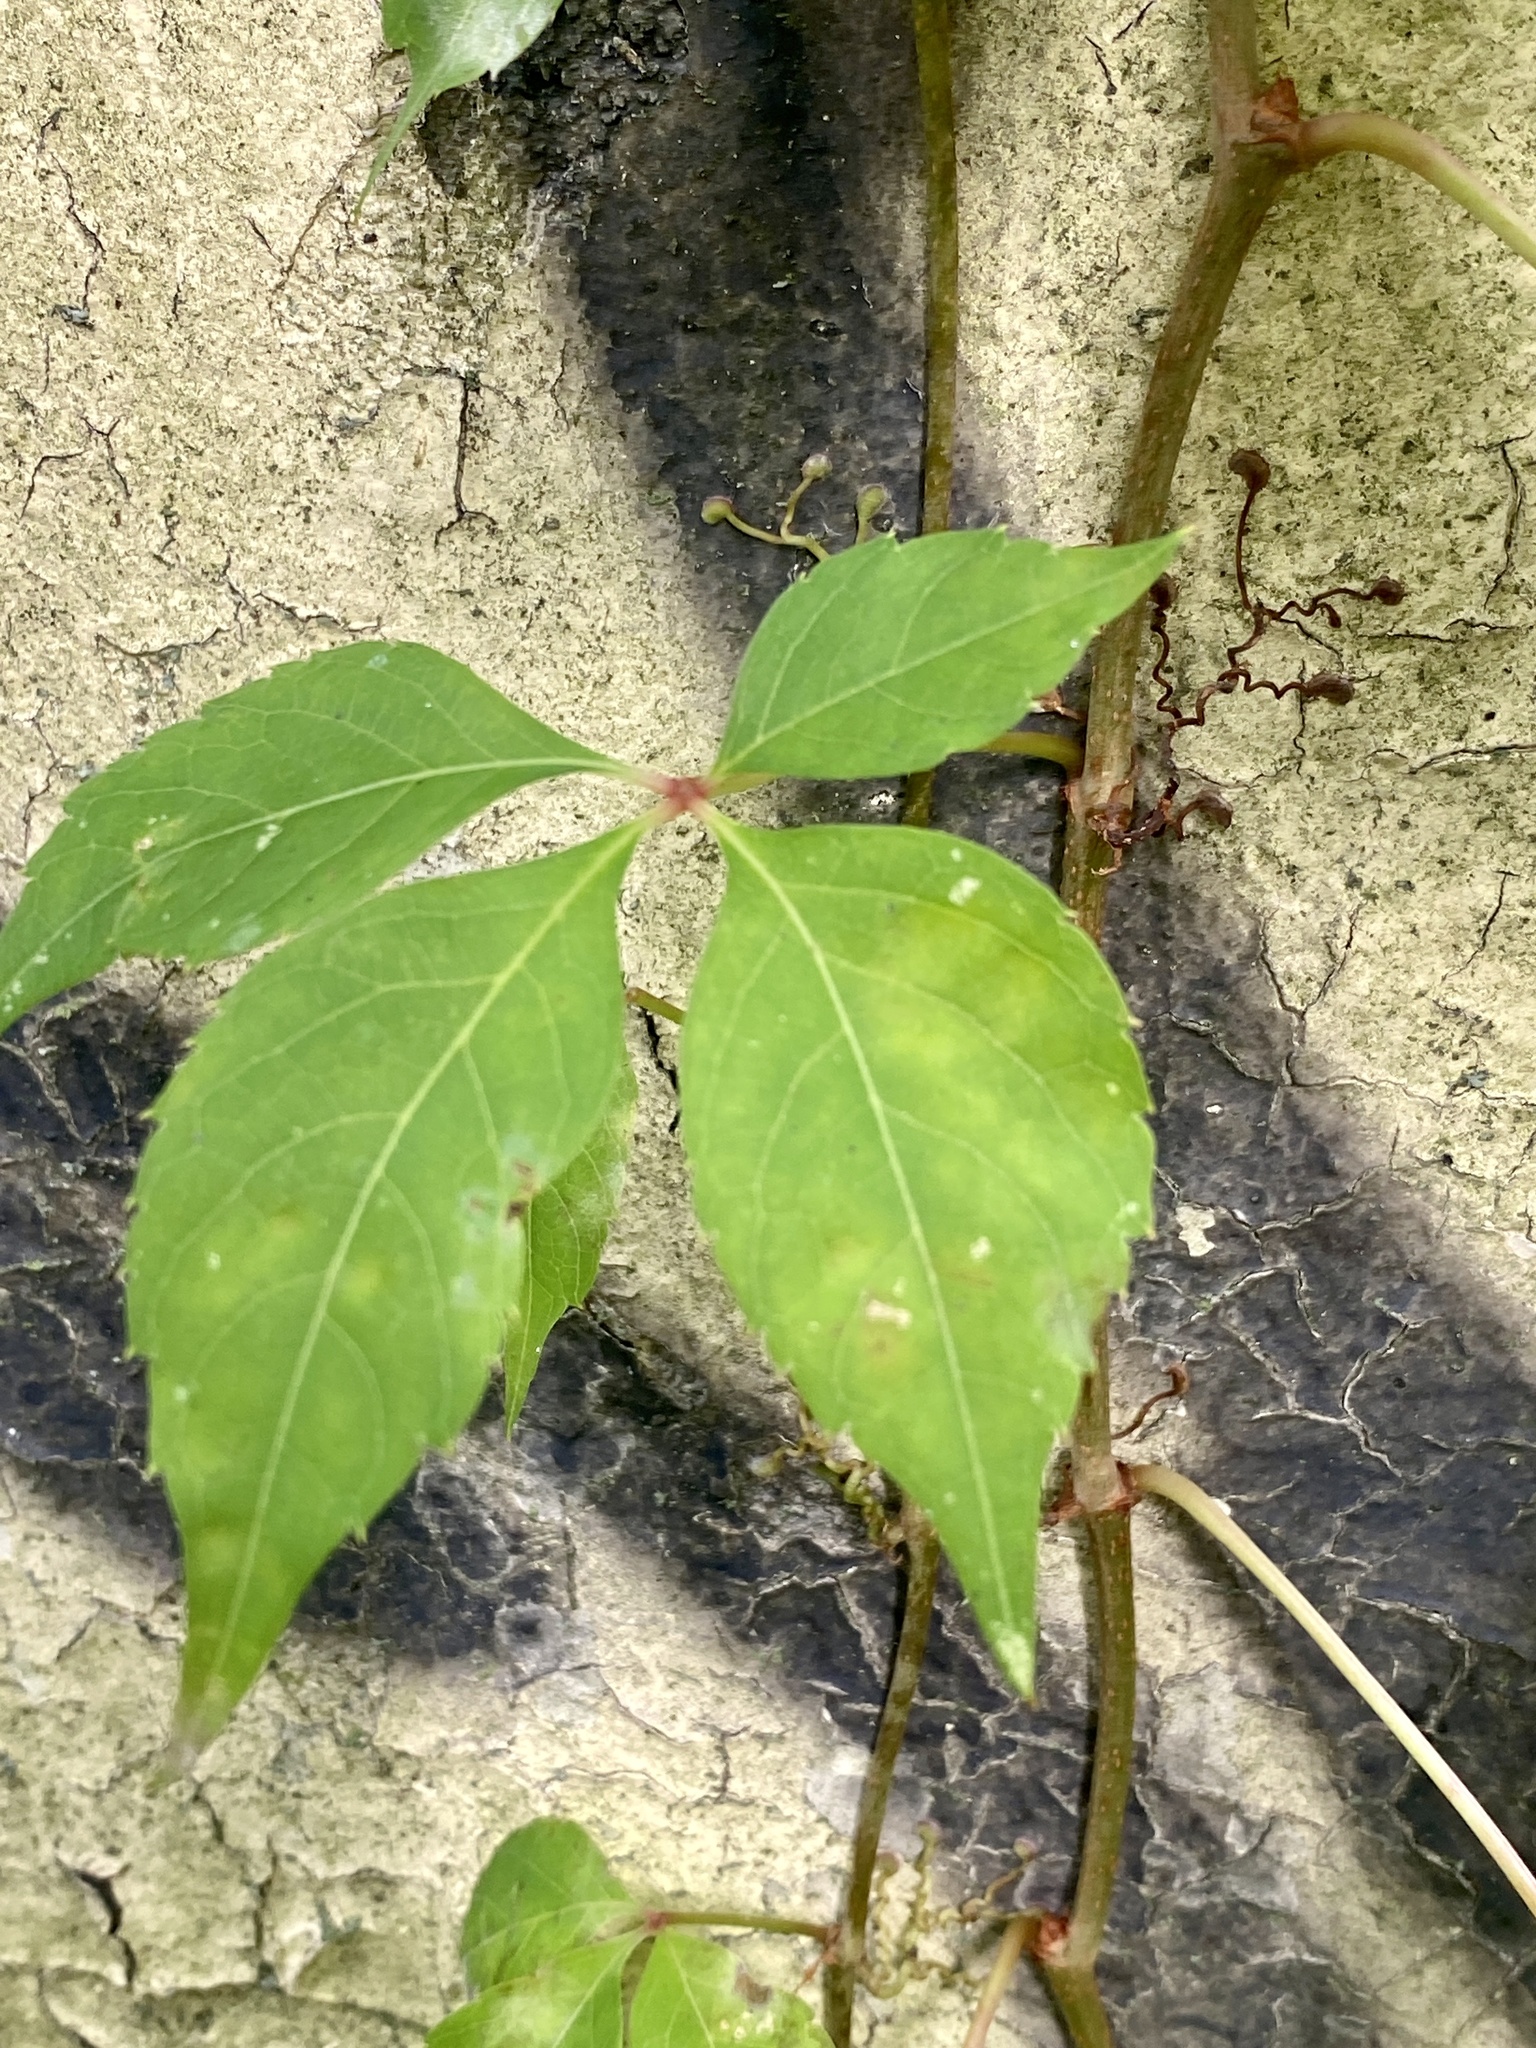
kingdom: Plantae
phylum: Tracheophyta
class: Magnoliopsida
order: Vitales
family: Vitaceae
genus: Parthenocissus
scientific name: Parthenocissus quinquefolia
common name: Virginia-creeper
